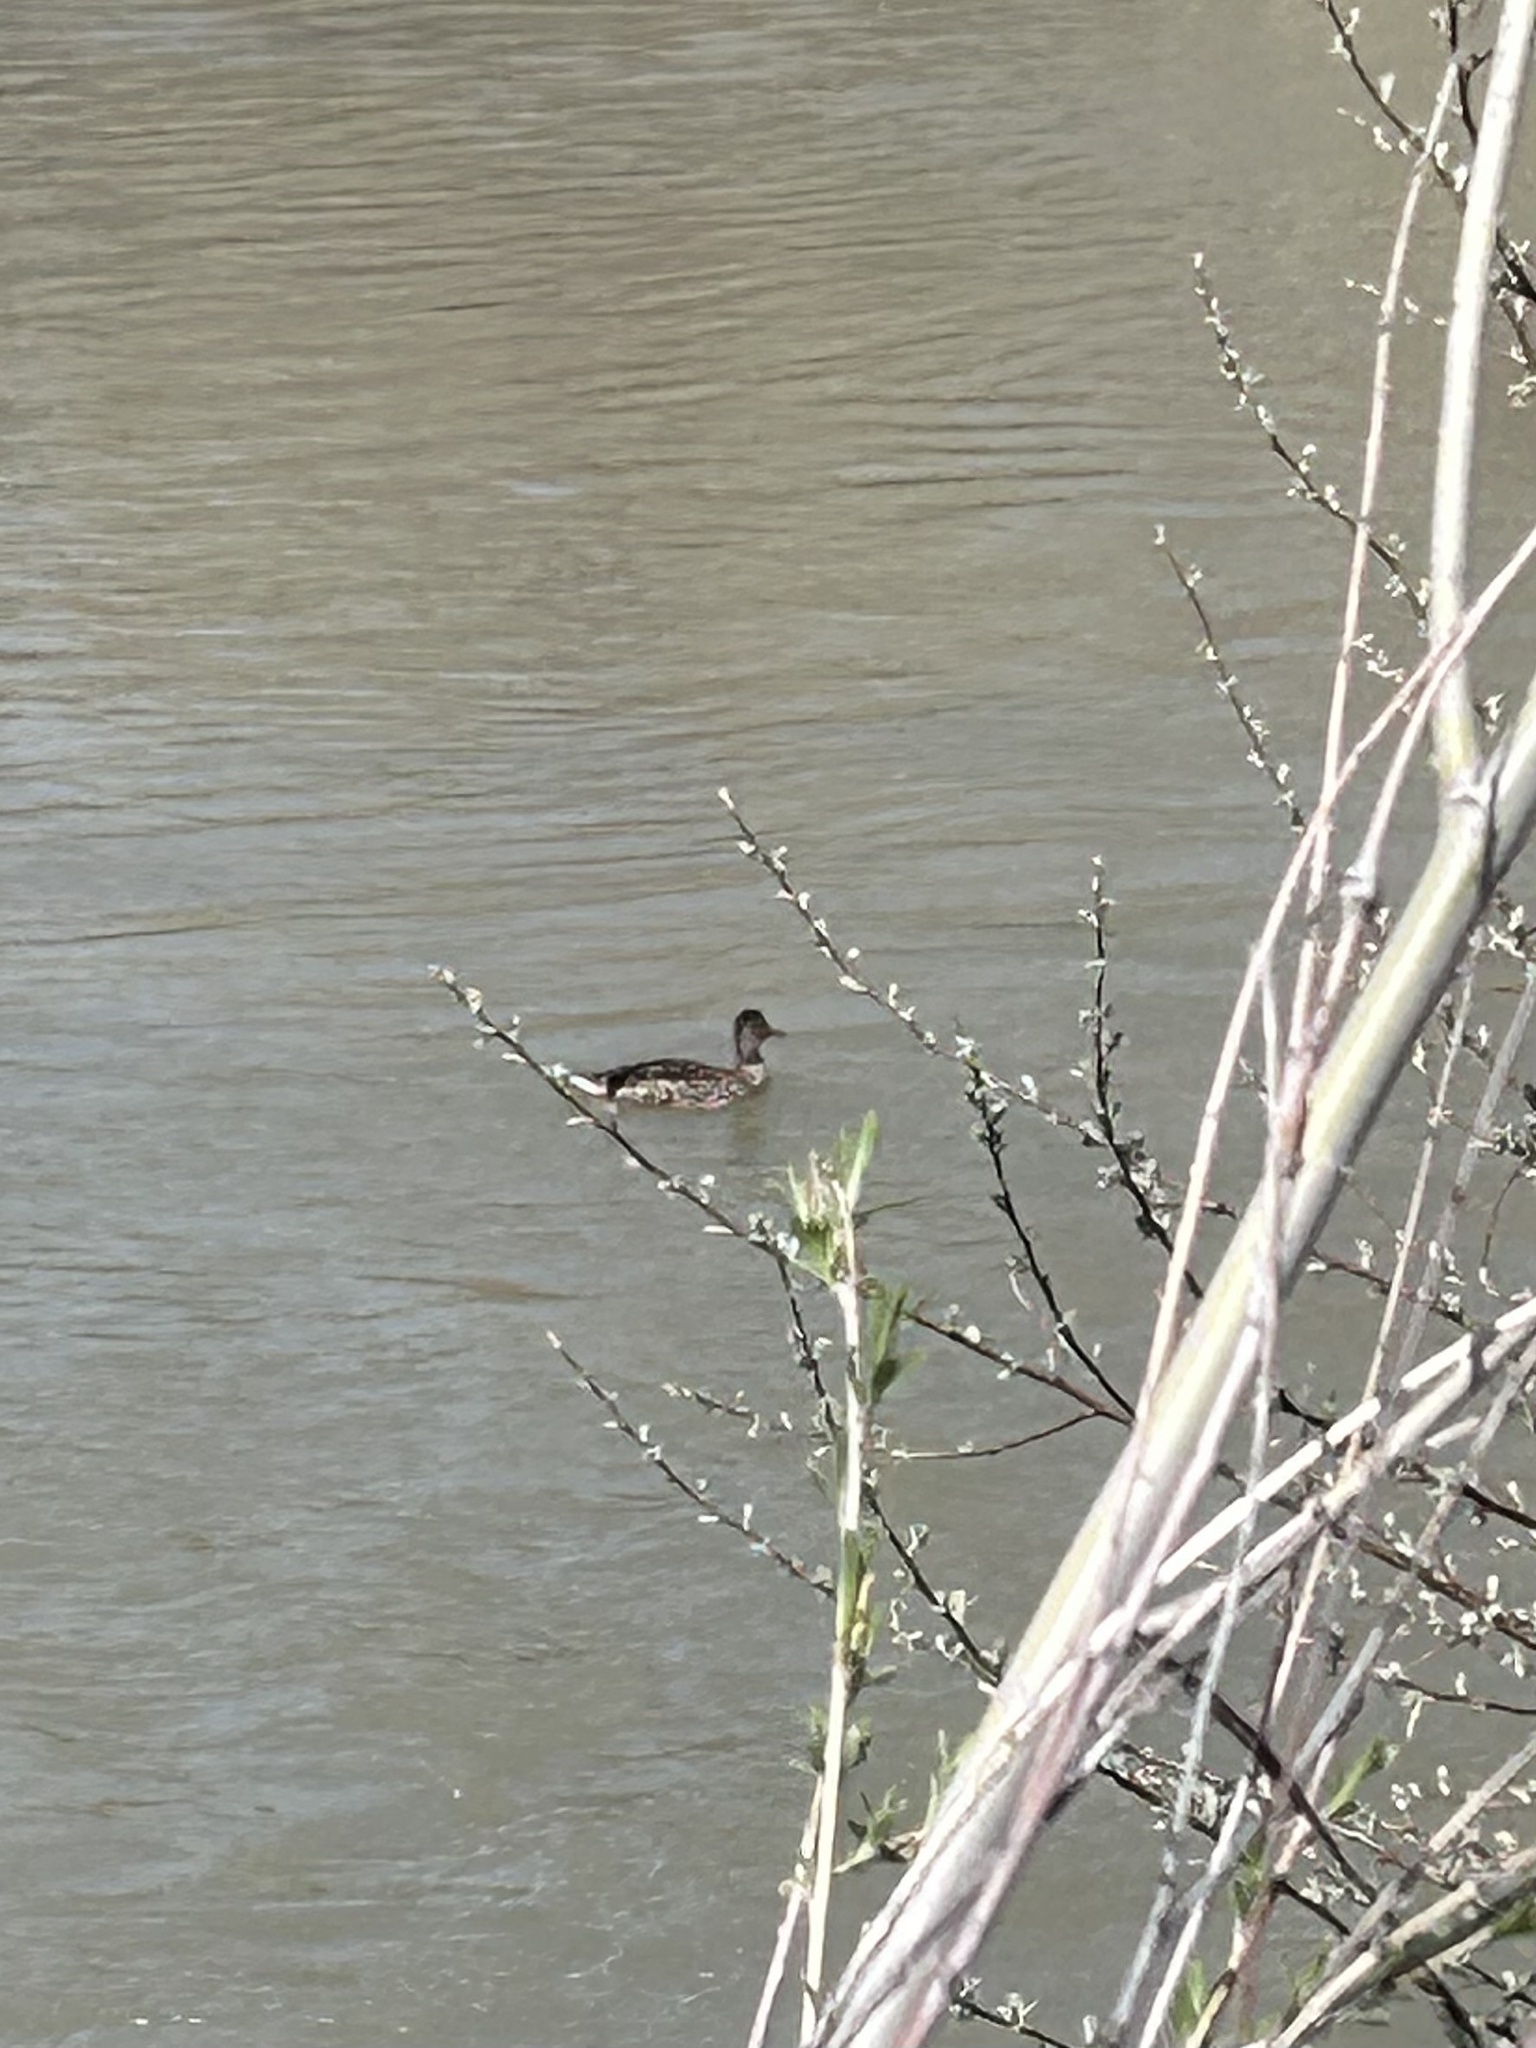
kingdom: Animalia
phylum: Chordata
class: Aves
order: Anseriformes
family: Anatidae
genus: Anas
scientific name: Anas platyrhynchos
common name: Mallard
